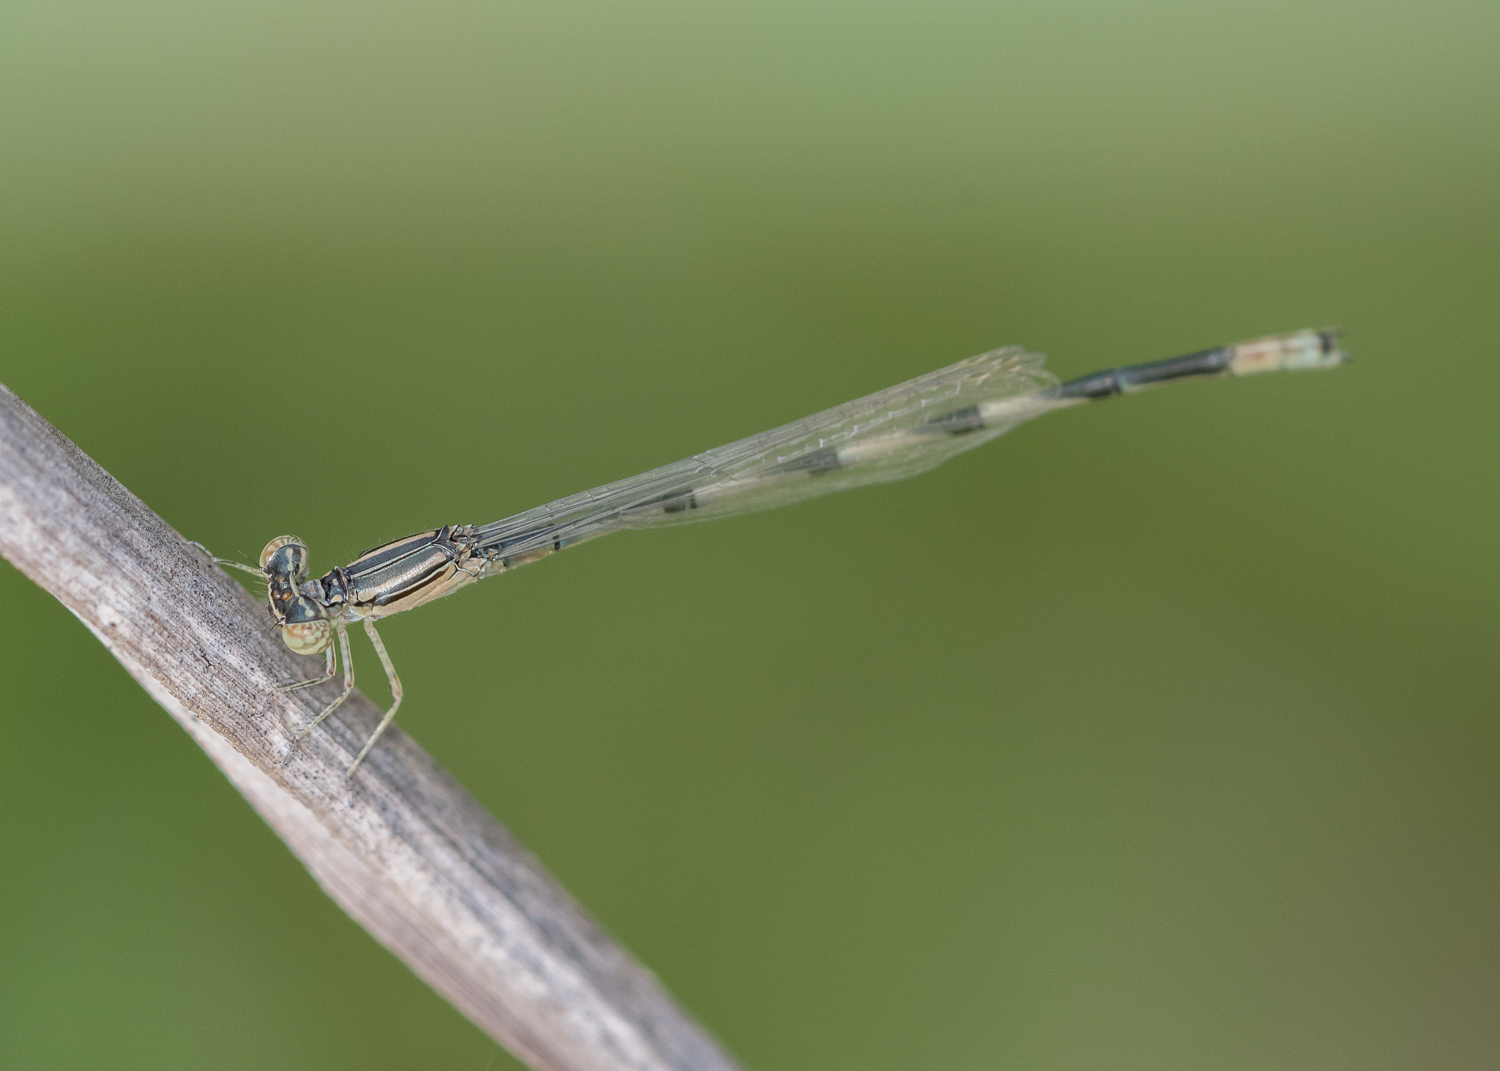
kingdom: Animalia
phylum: Arthropoda
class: Insecta
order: Odonata
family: Coenagrionidae
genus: Enallagma
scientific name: Enallagma basidens
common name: Double-striped bluet
